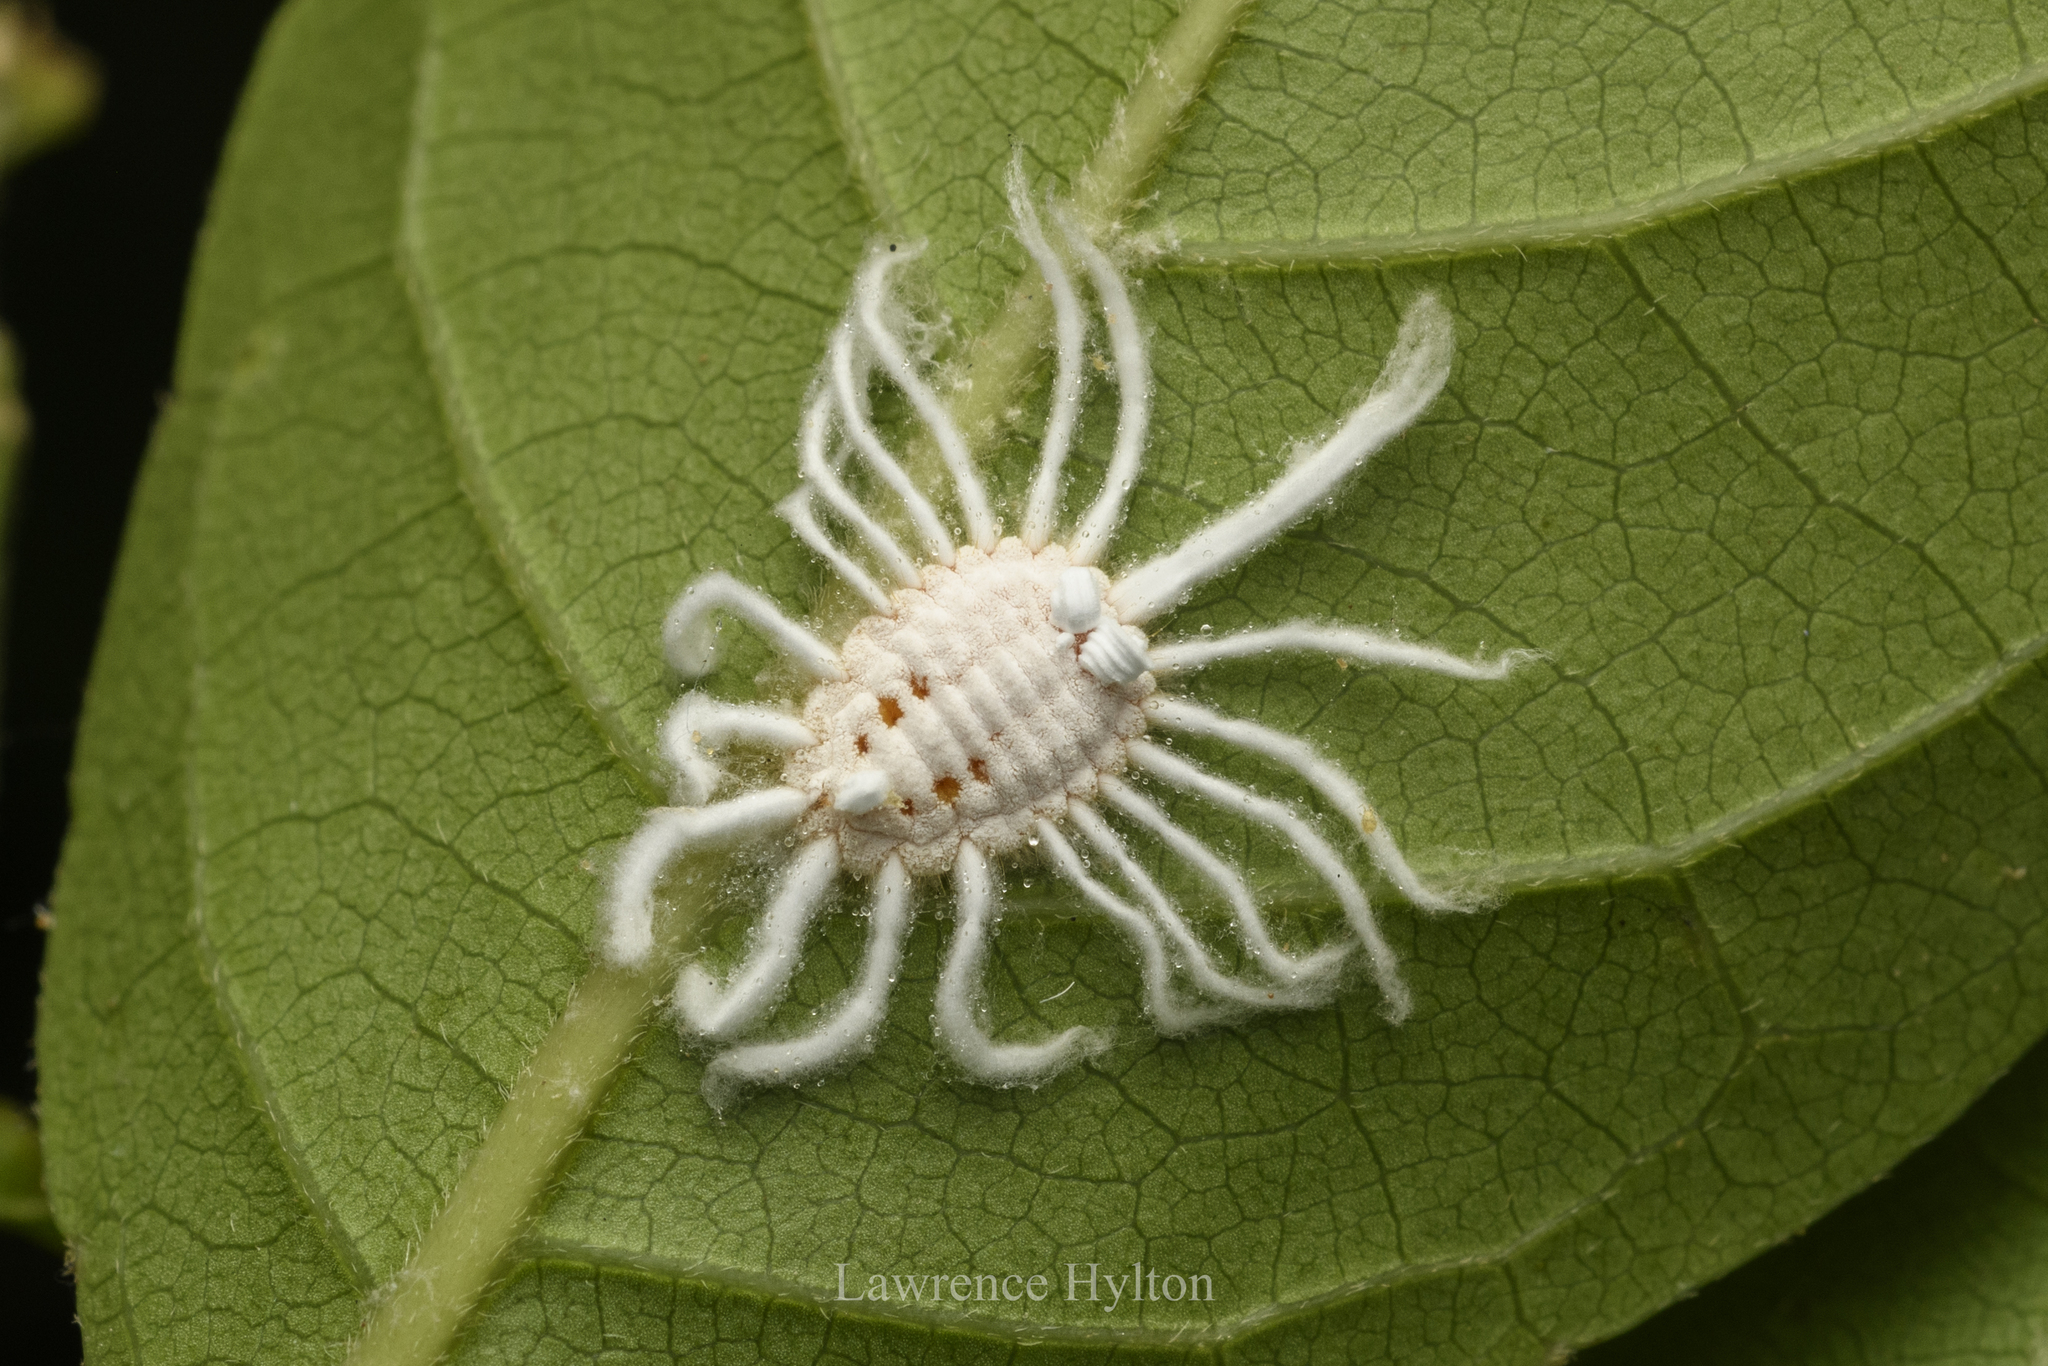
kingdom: Animalia
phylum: Arthropoda
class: Insecta
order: Hemiptera
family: Margarodidae
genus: Icerya
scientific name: Icerya aegyptiaca
